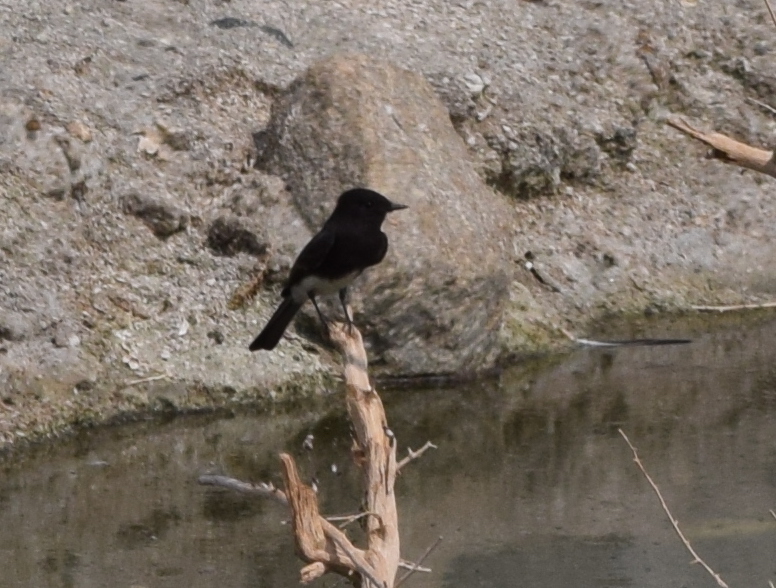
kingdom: Animalia
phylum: Chordata
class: Aves
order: Passeriformes
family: Tyrannidae
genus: Sayornis
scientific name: Sayornis nigricans
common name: Black phoebe
